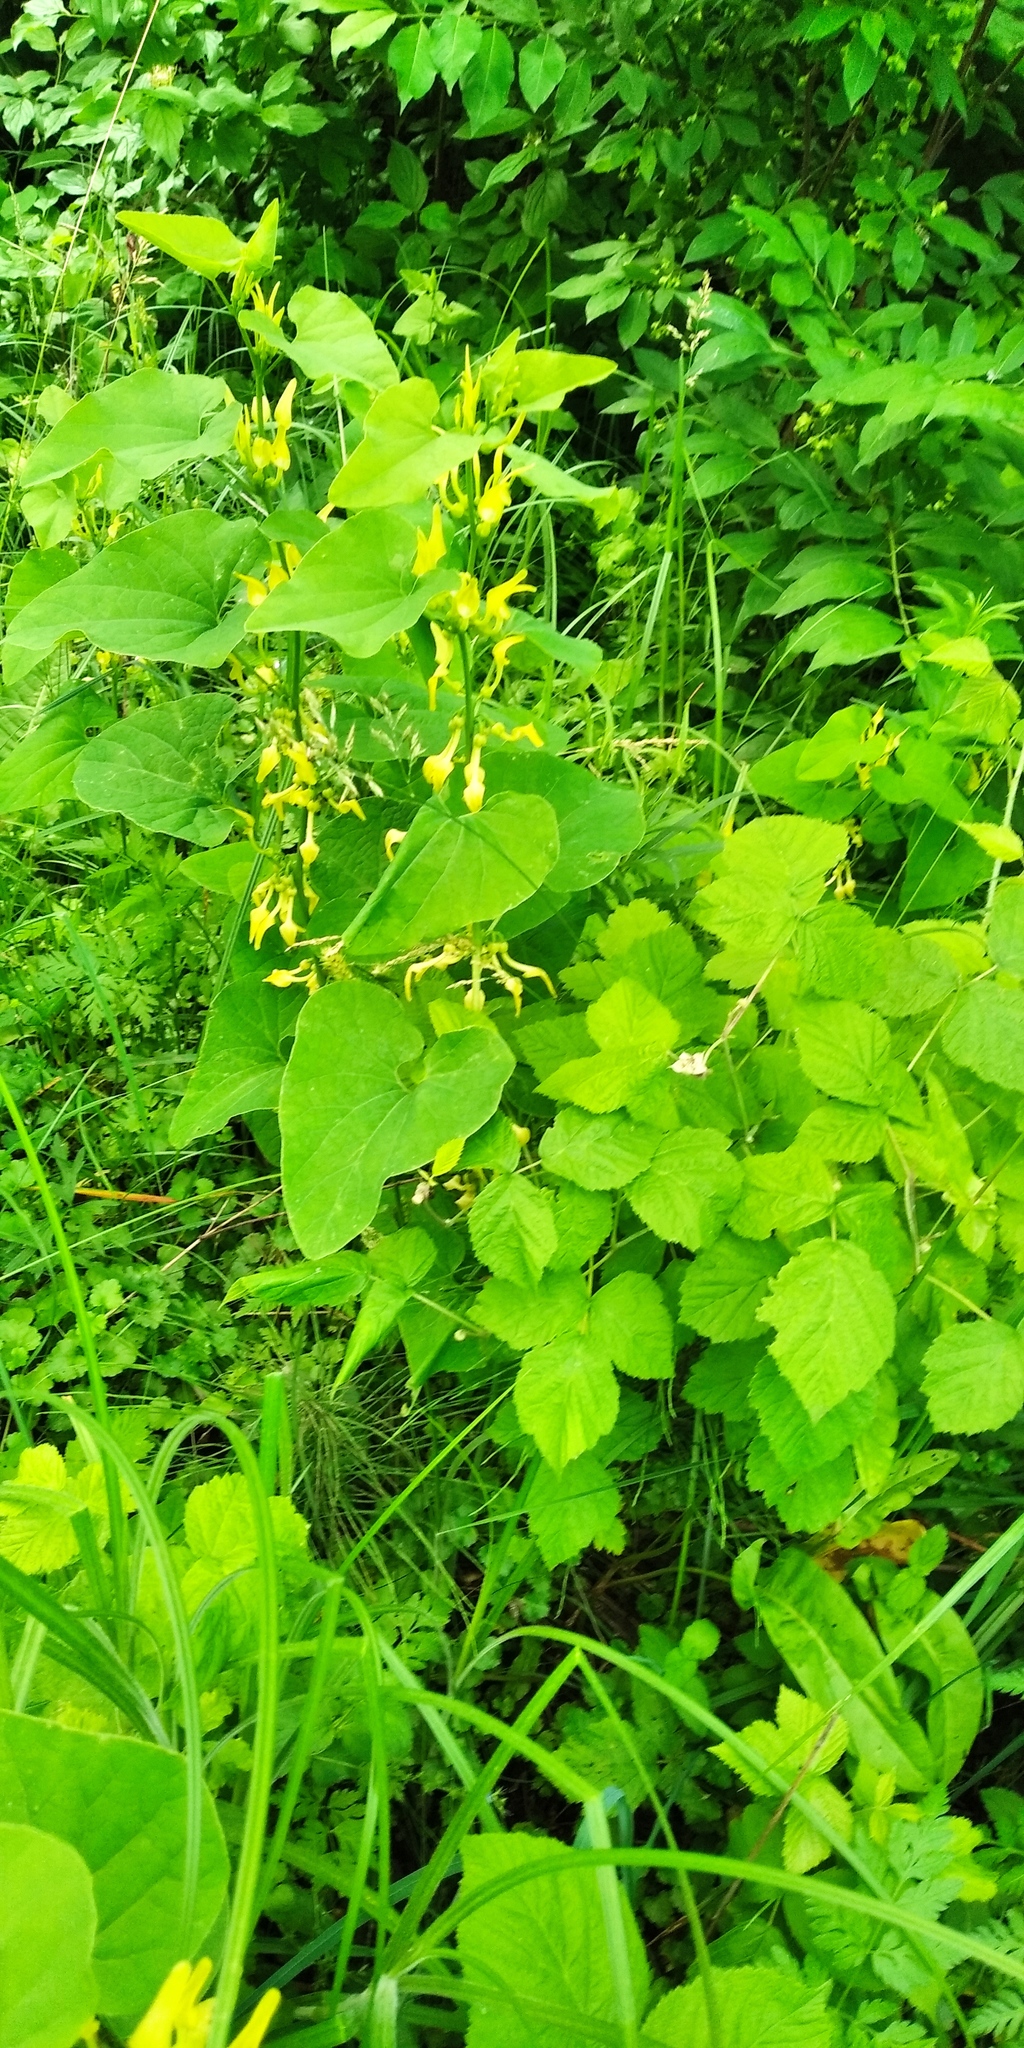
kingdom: Plantae
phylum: Tracheophyta
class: Magnoliopsida
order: Piperales
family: Aristolochiaceae
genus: Aristolochia
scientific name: Aristolochia clematitis
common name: Birthwort
